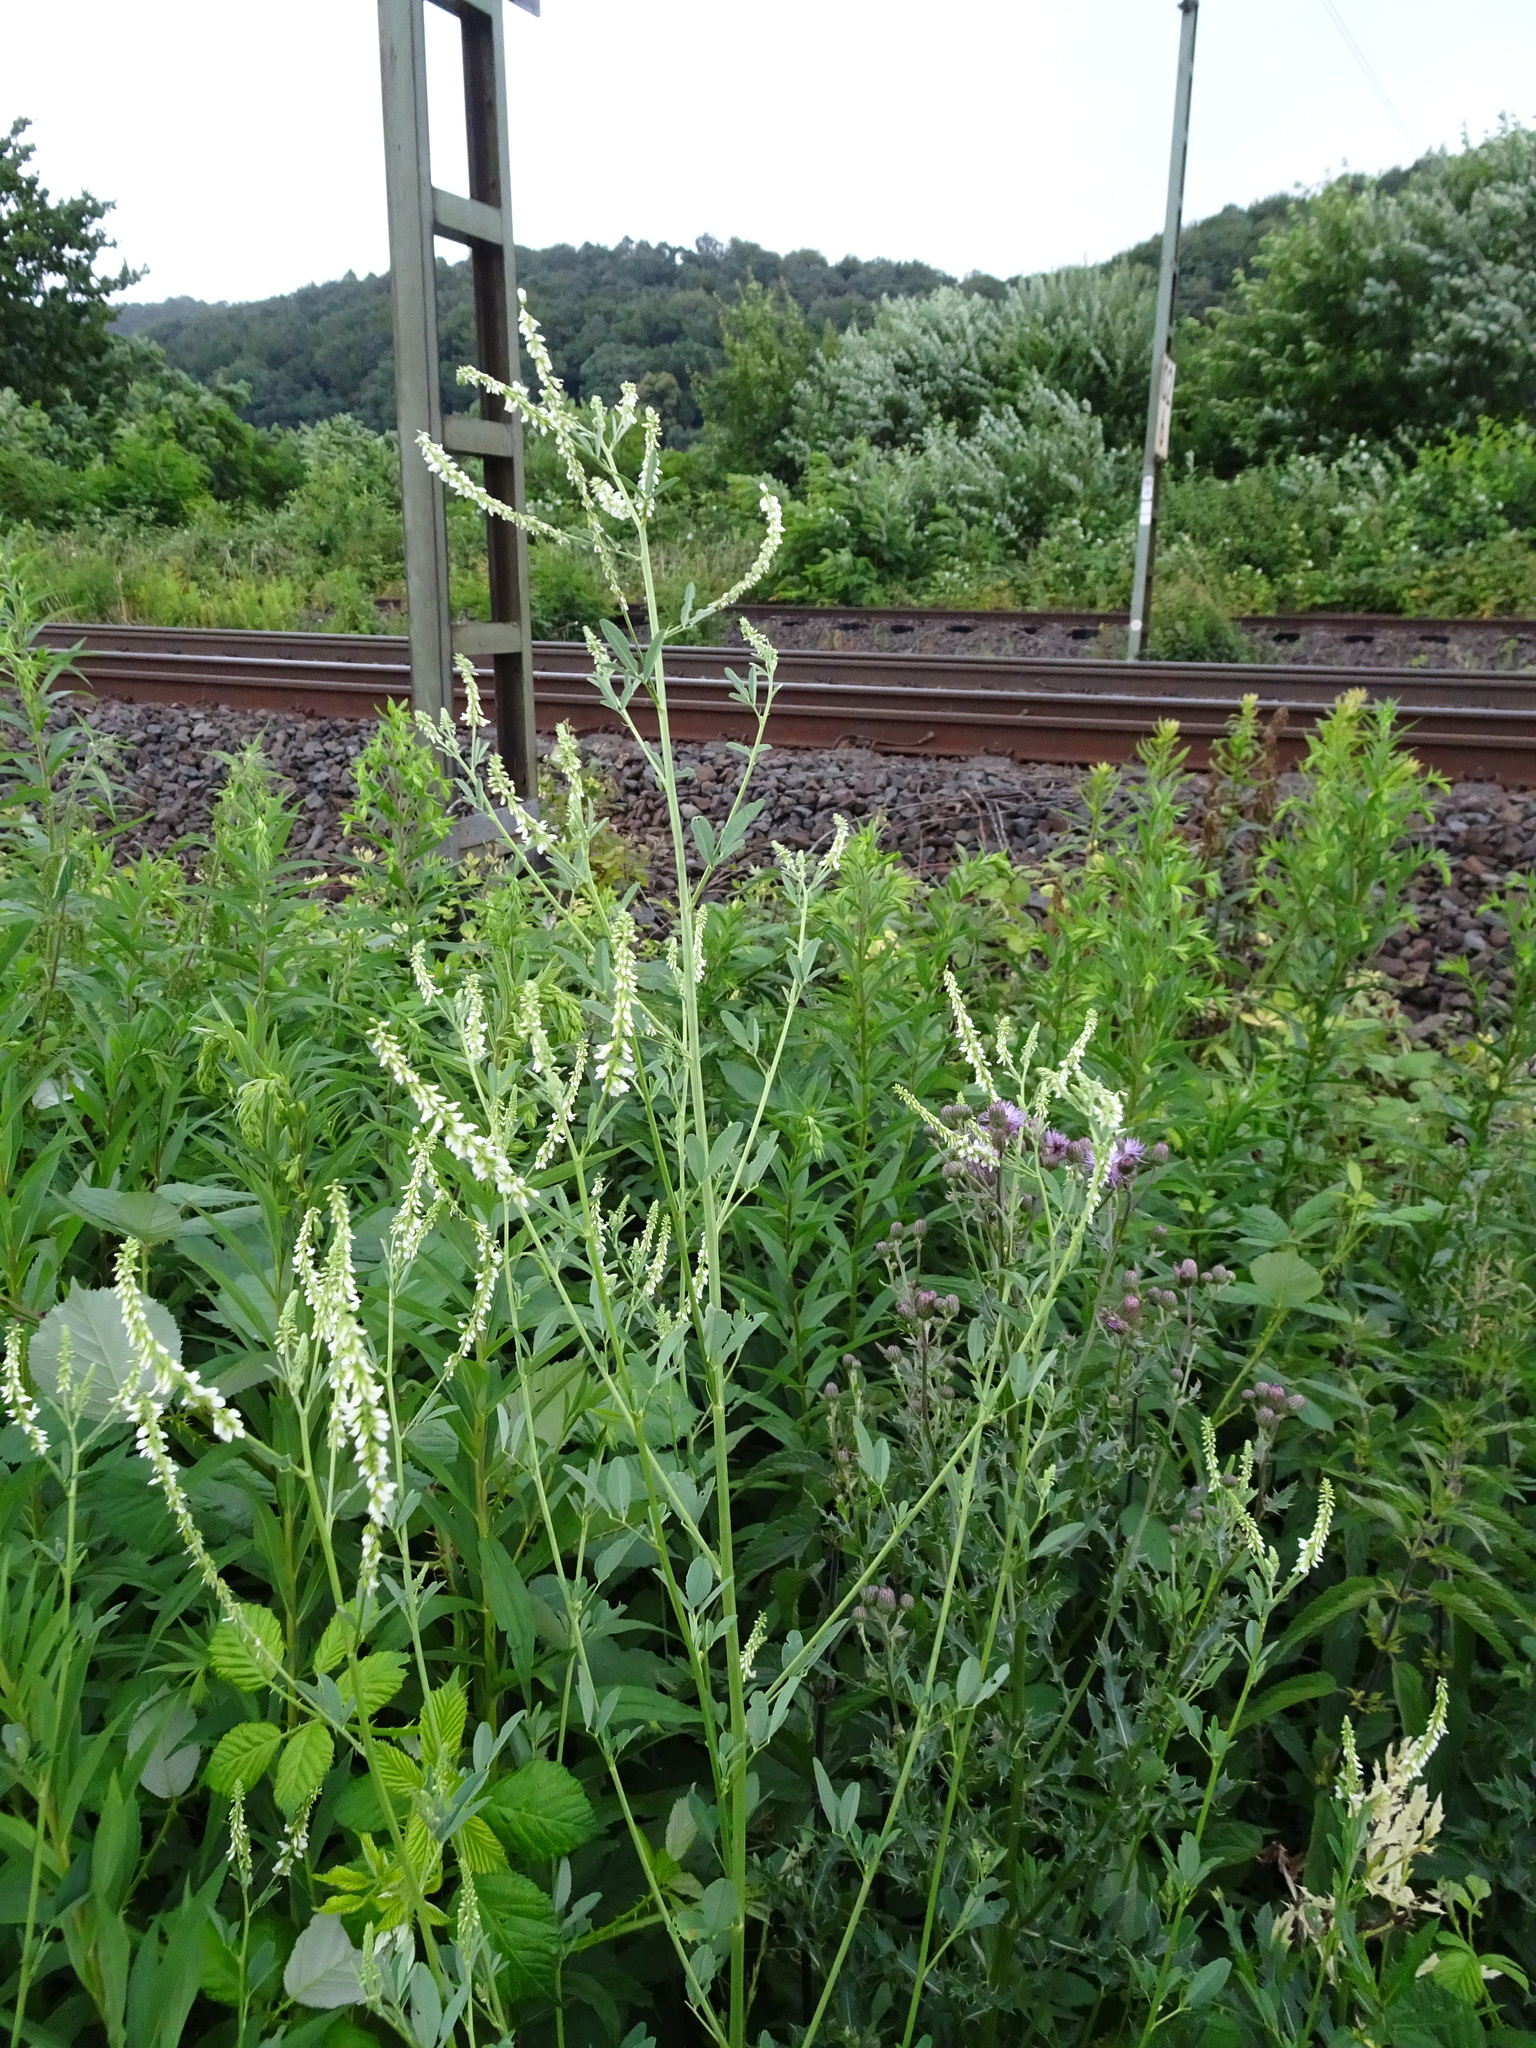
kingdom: Plantae
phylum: Tracheophyta
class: Magnoliopsida
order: Fabales
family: Fabaceae
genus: Melilotus
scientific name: Melilotus albus
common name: White melilot
